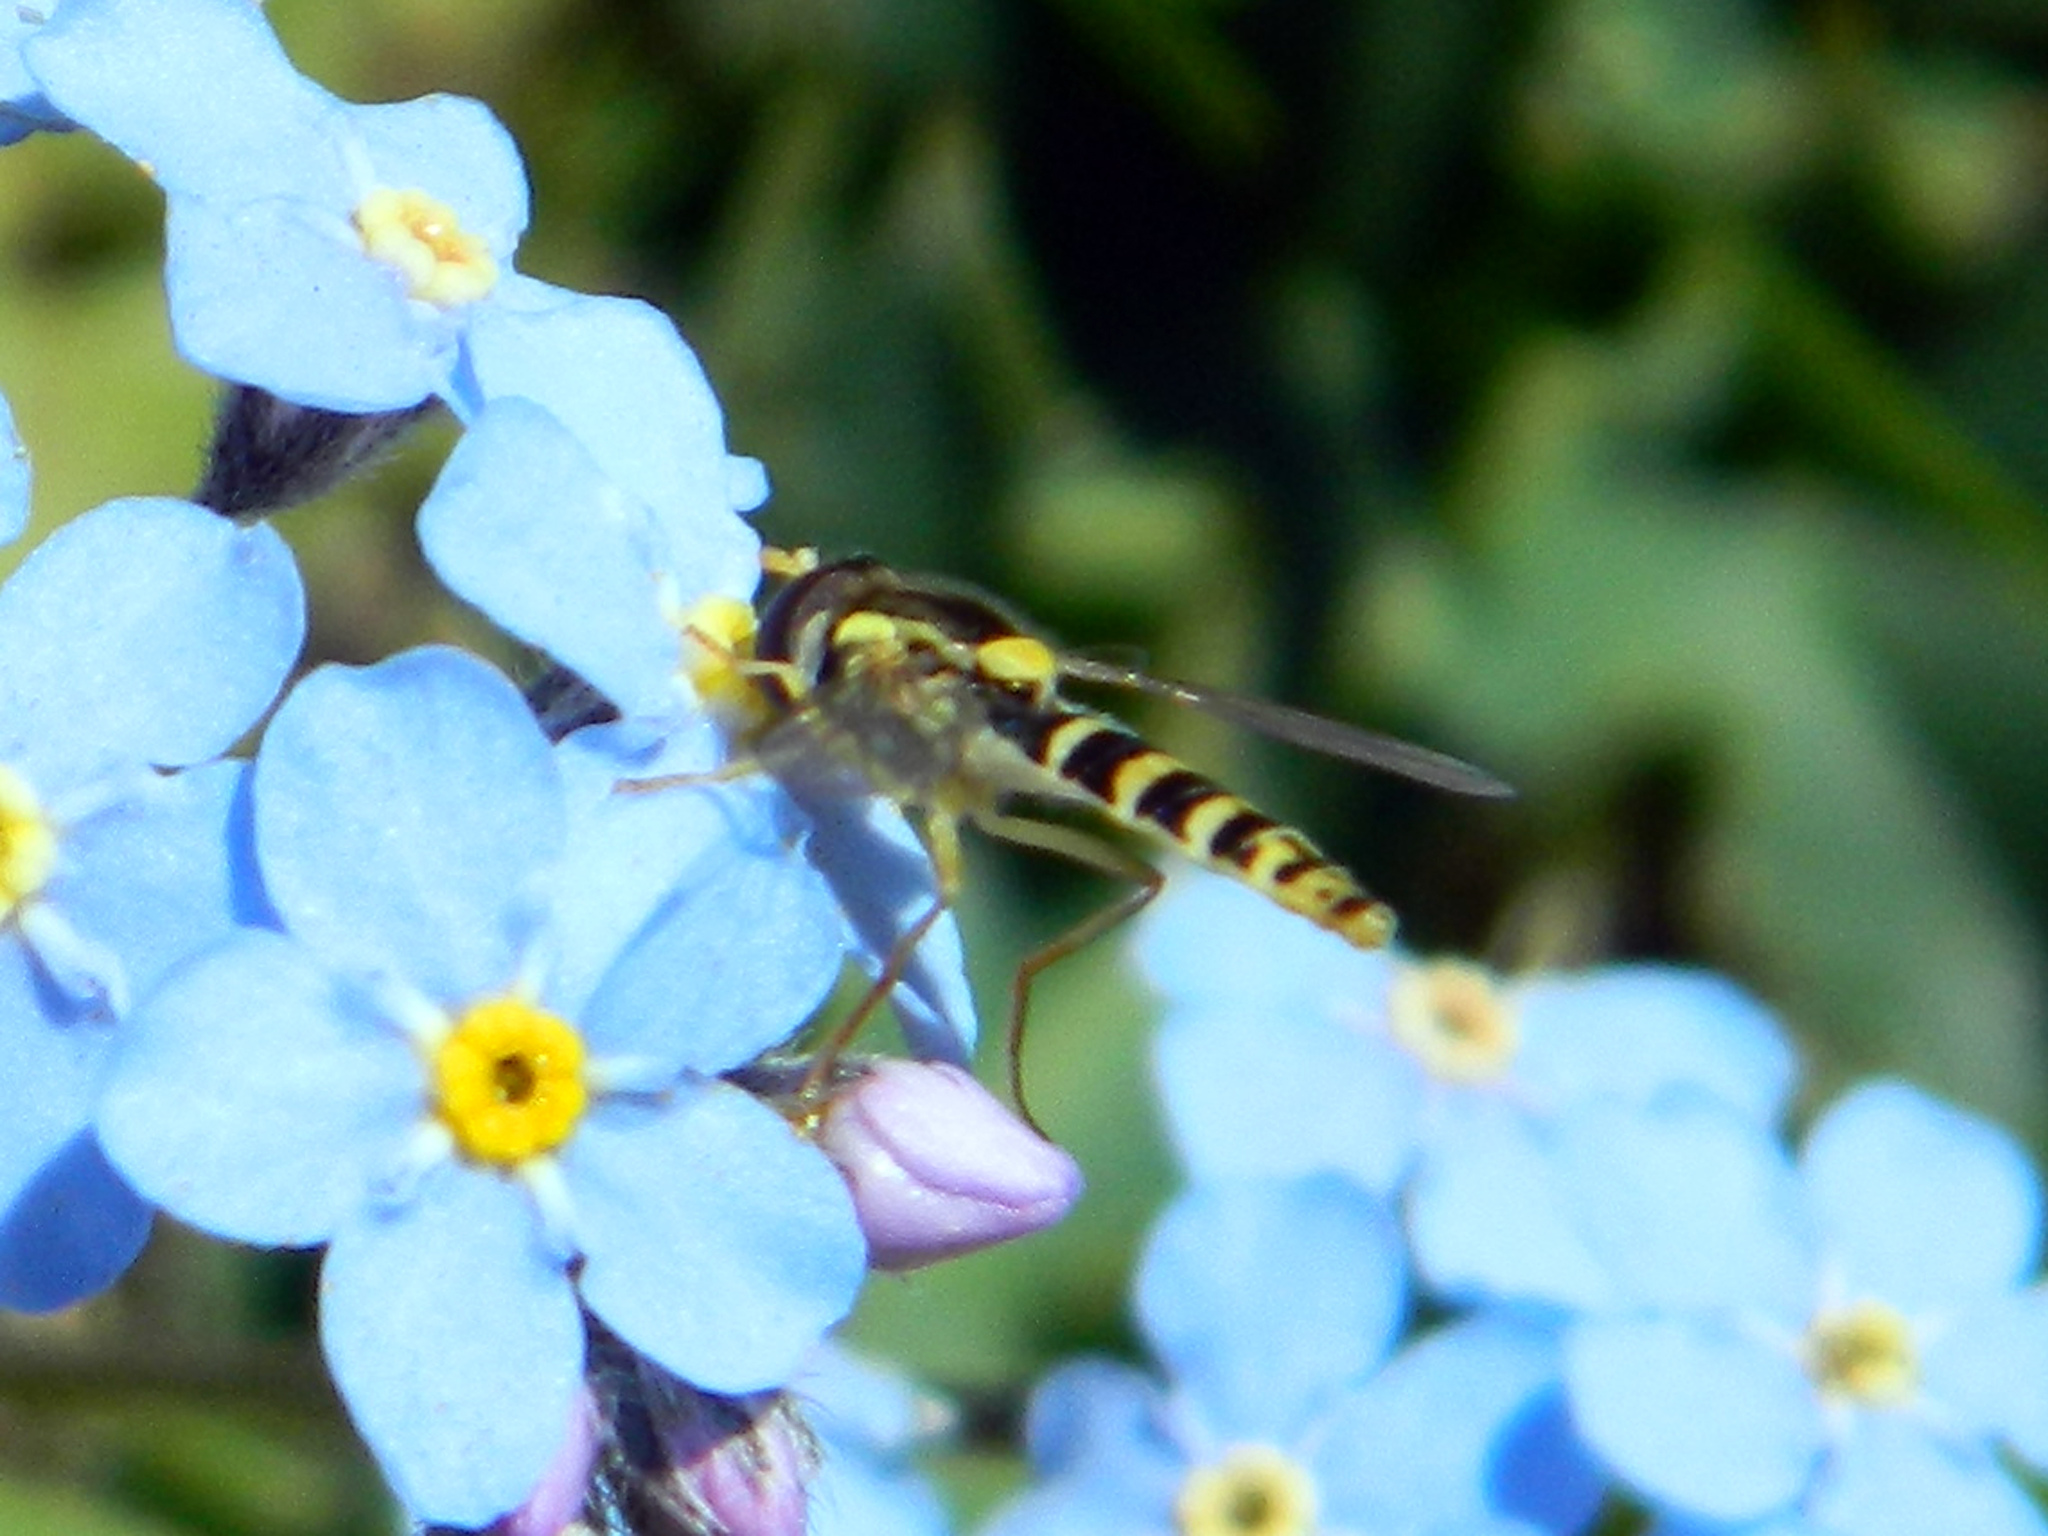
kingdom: Animalia
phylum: Arthropoda
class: Insecta
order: Diptera
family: Syrphidae
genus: Sphaerophoria
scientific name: Sphaerophoria
